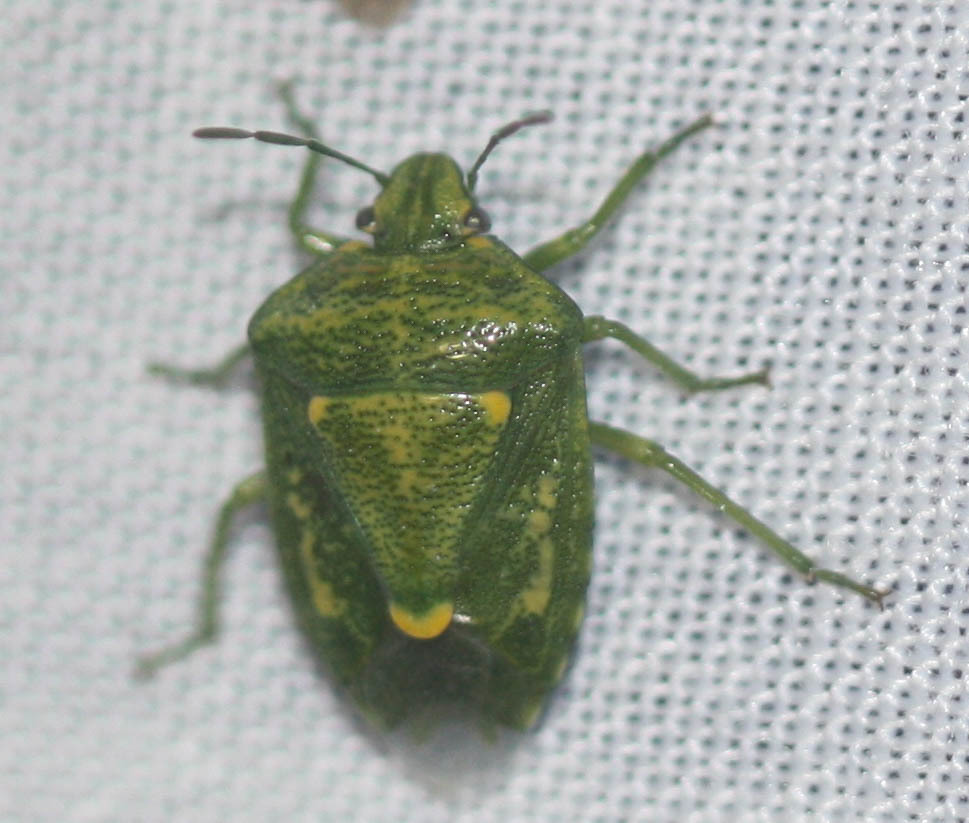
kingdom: Animalia
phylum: Arthropoda
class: Insecta
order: Hemiptera
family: Pentatomidae
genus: Banasa
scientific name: Banasa euchlora
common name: Cedar berry bug
